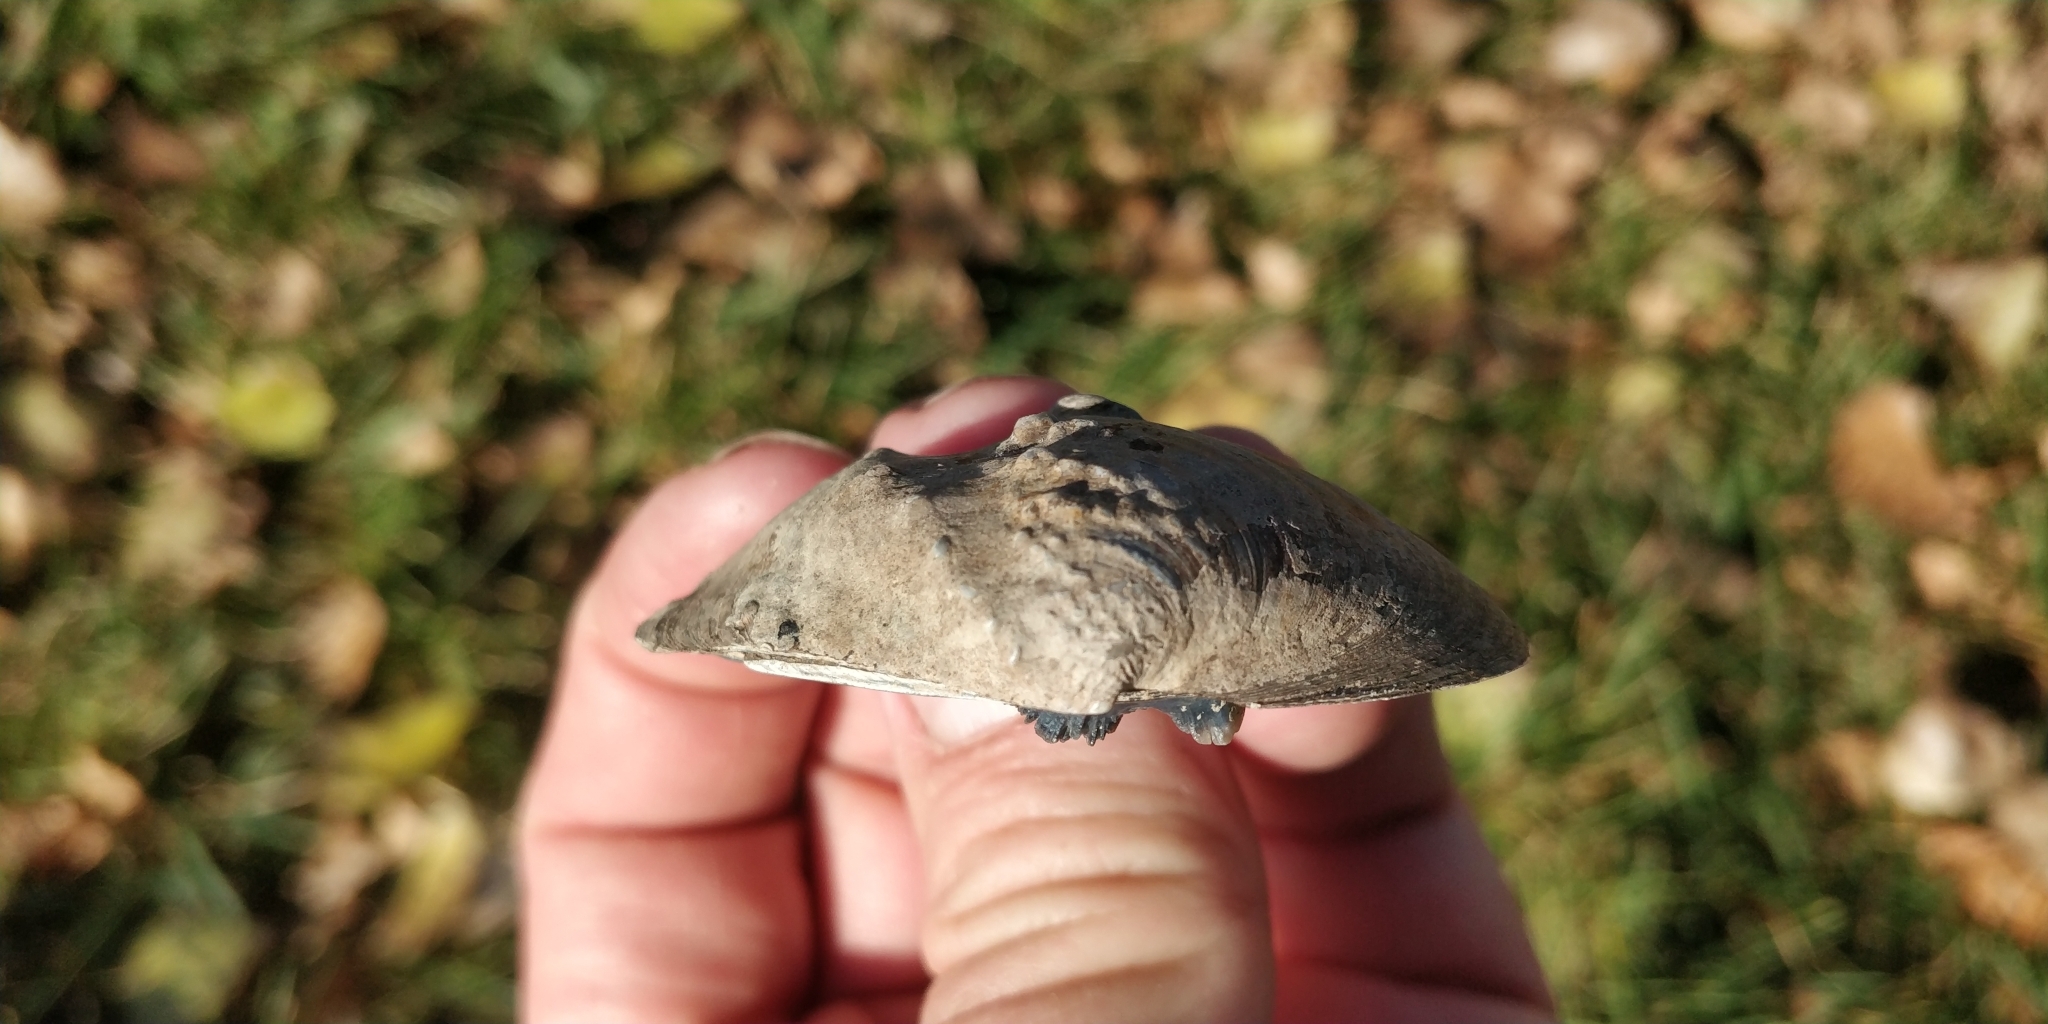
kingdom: Animalia
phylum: Mollusca
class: Bivalvia
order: Unionida
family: Unionidae
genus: Quadrula
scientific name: Quadrula quadrula
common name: Mapleleaf
